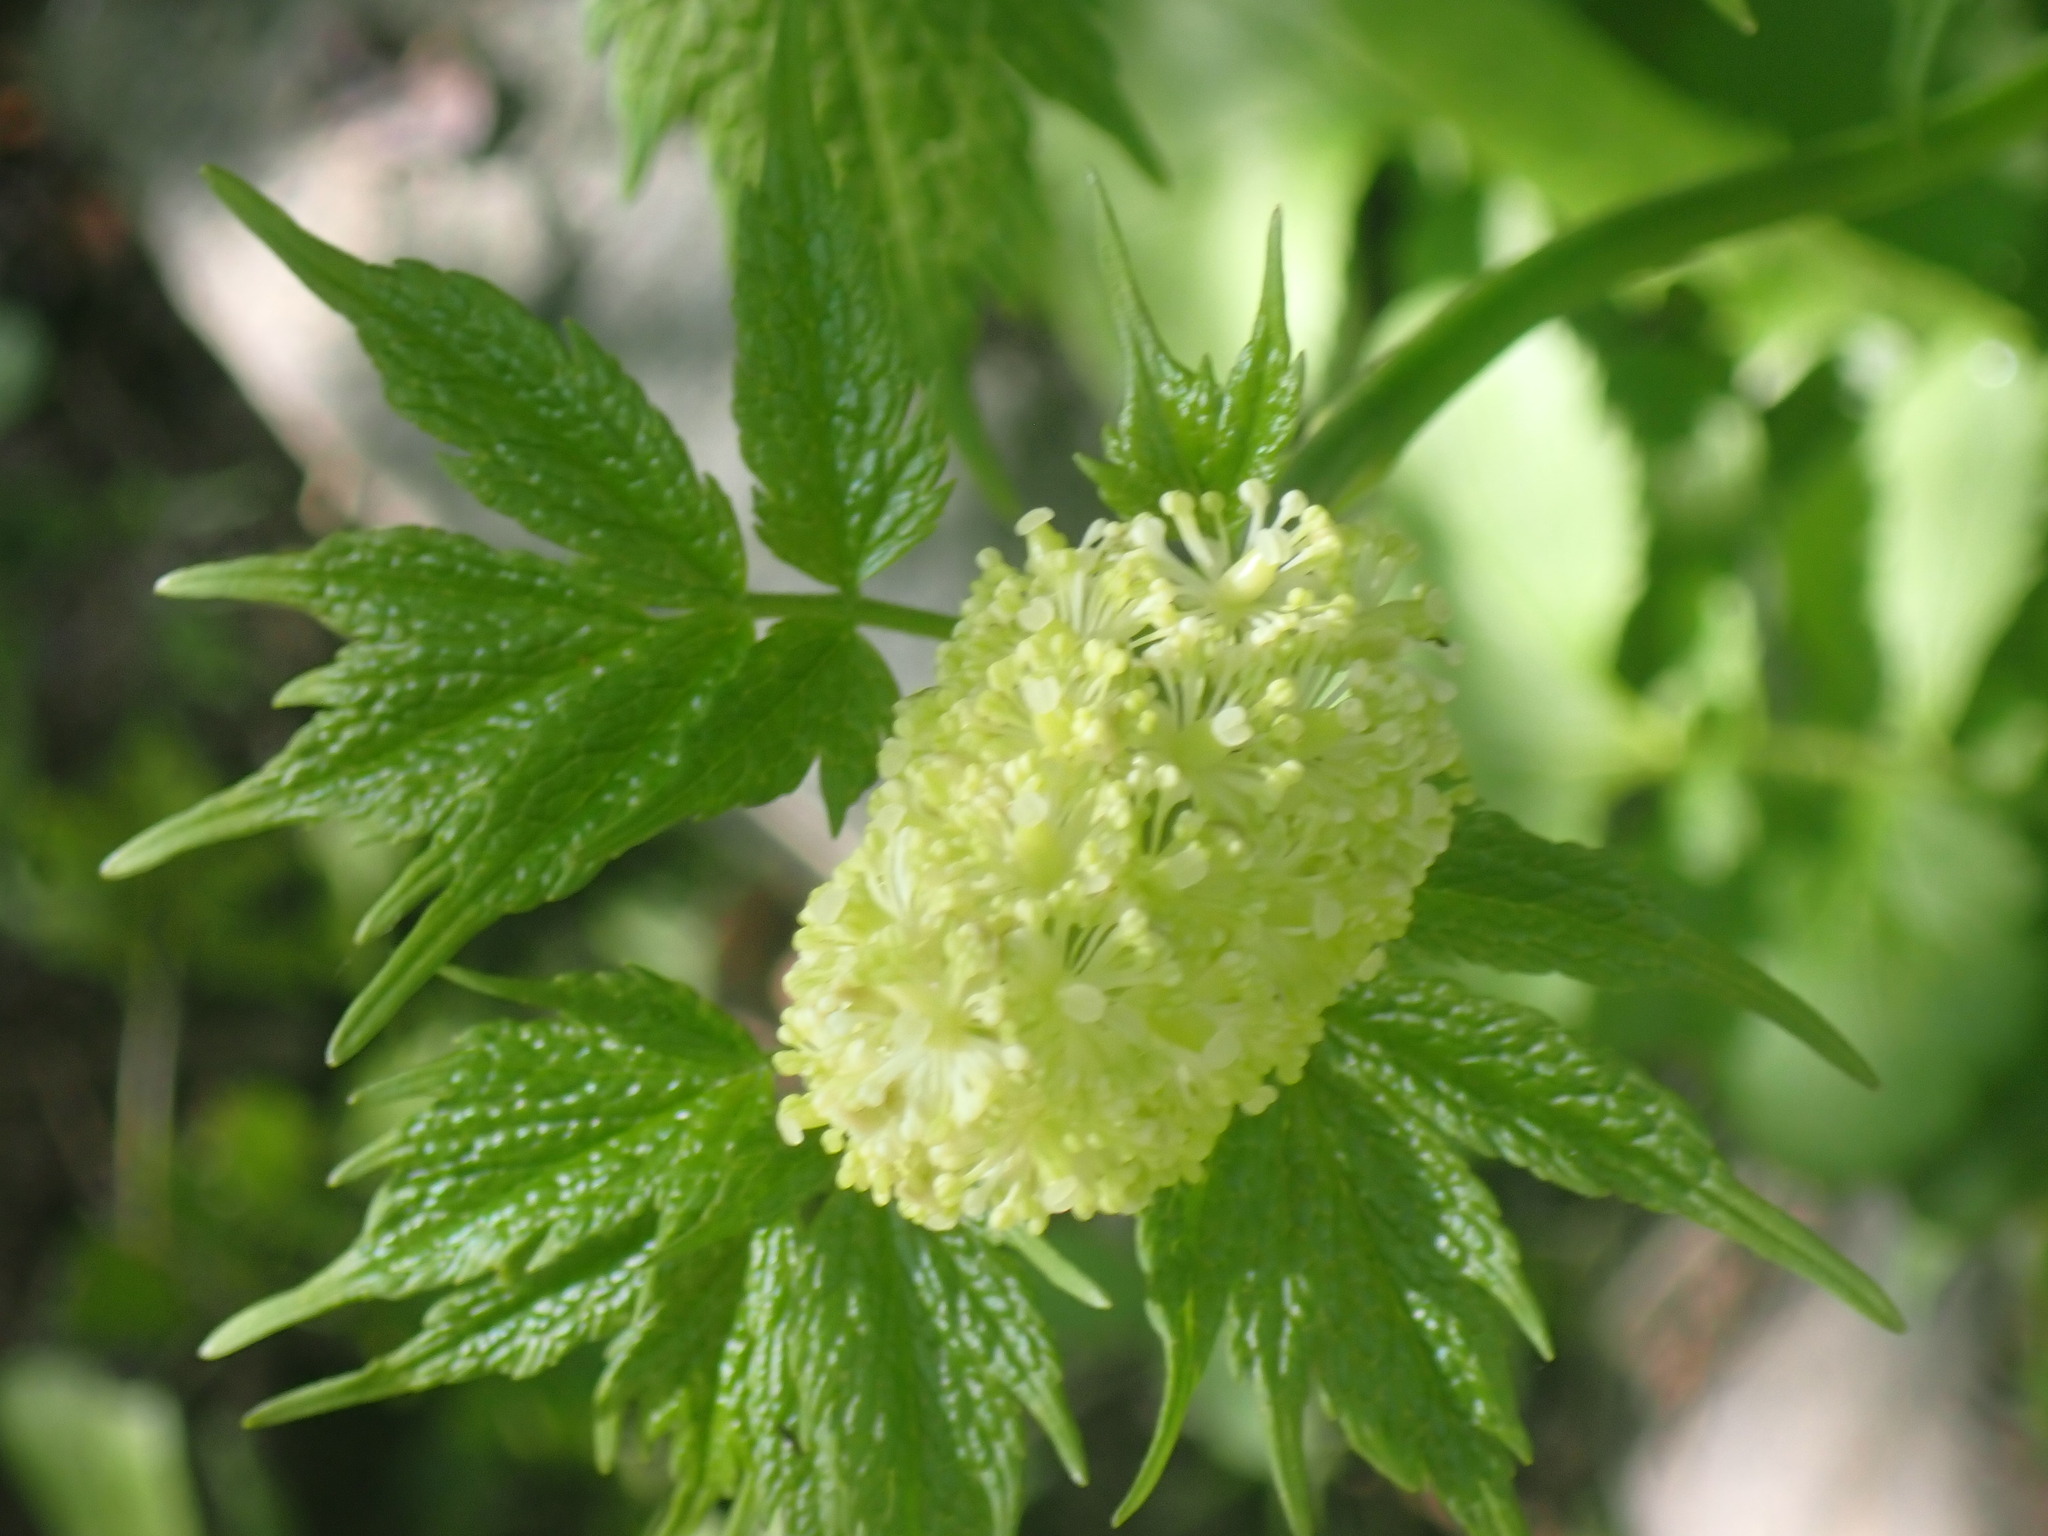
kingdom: Plantae
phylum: Tracheophyta
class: Magnoliopsida
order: Ranunculales
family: Ranunculaceae
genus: Actaea
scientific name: Actaea rubra
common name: Red baneberry
